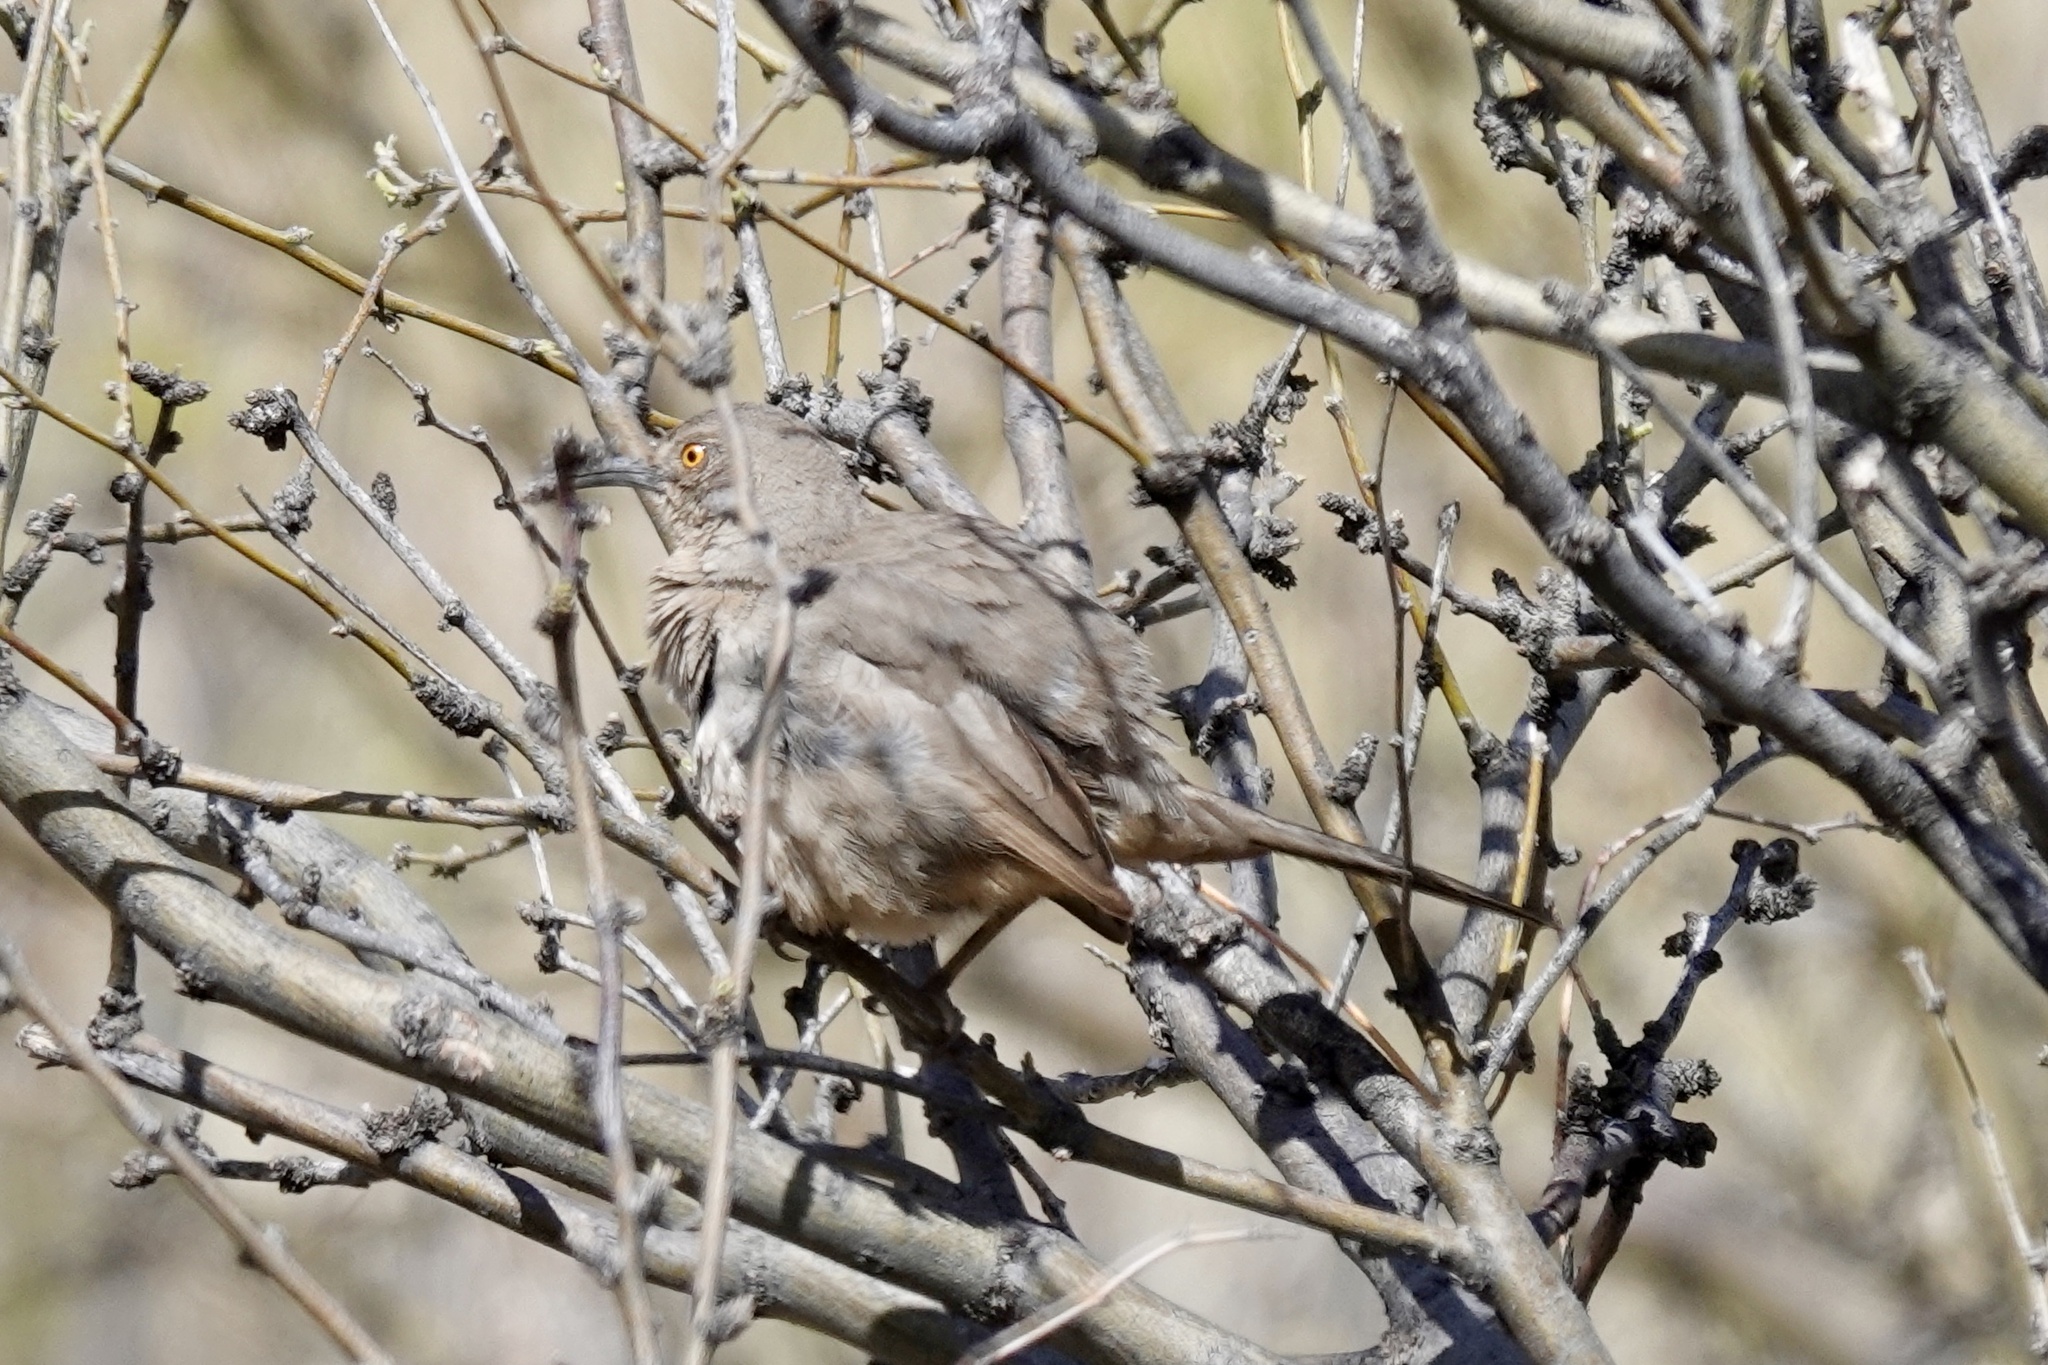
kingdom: Animalia
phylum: Chordata
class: Aves
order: Passeriformes
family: Mimidae
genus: Toxostoma
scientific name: Toxostoma curvirostre
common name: Curve-billed thrasher
